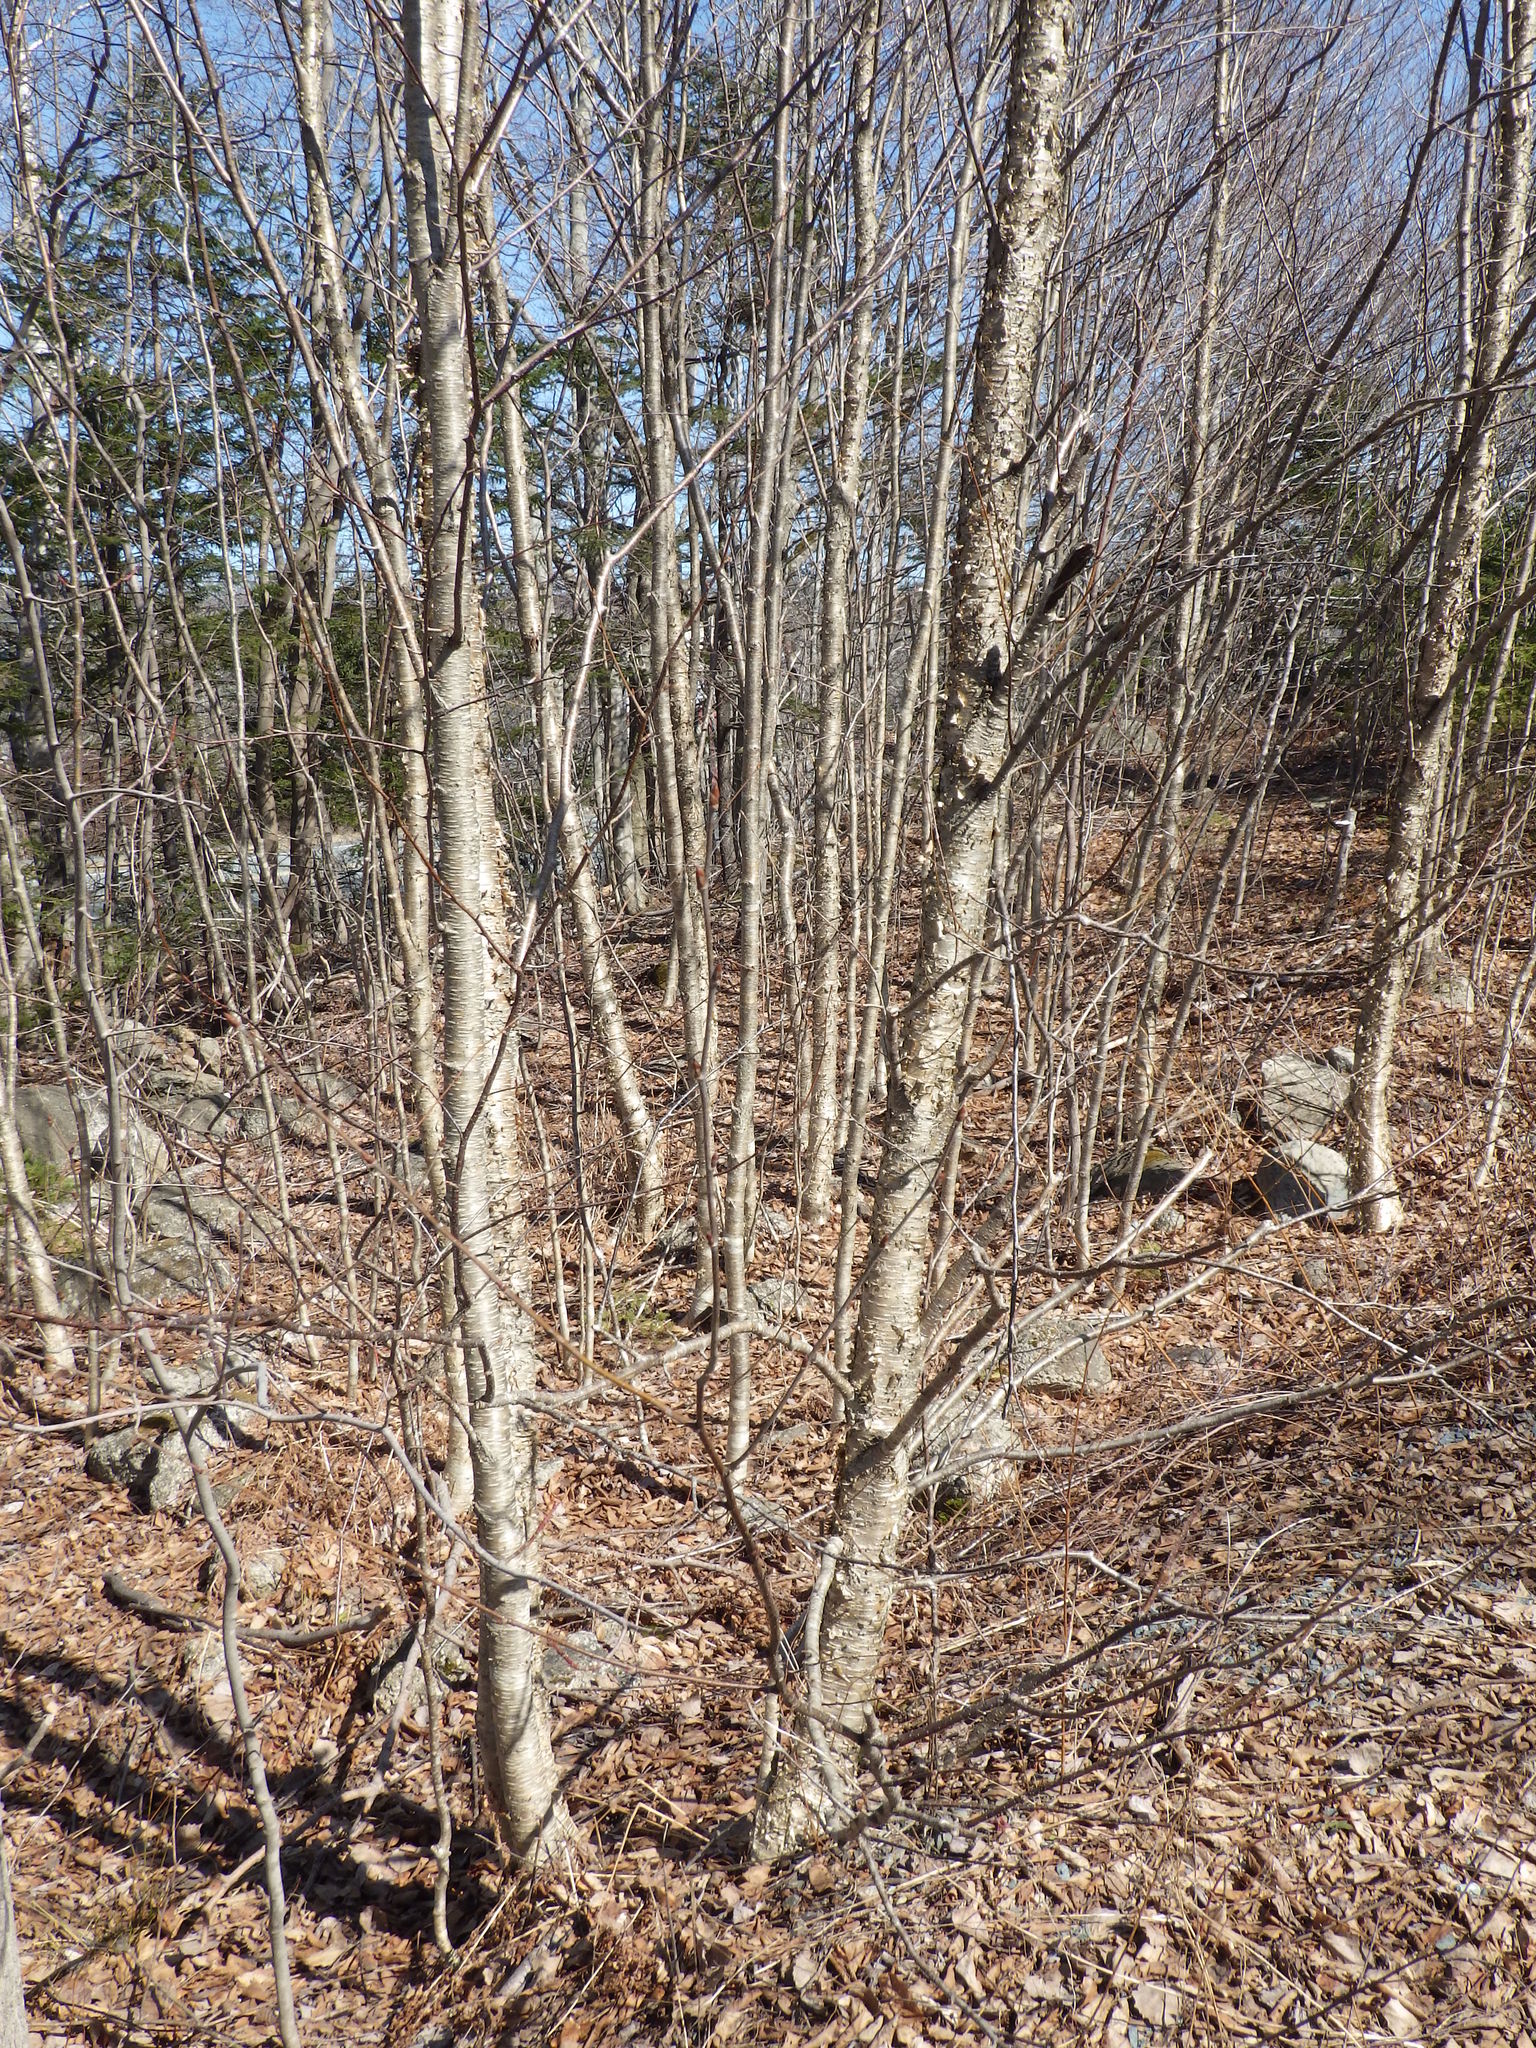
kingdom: Plantae
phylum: Tracheophyta
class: Magnoliopsida
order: Fagales
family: Betulaceae
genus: Betula
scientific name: Betula alleghaniensis
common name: Yellow birch
